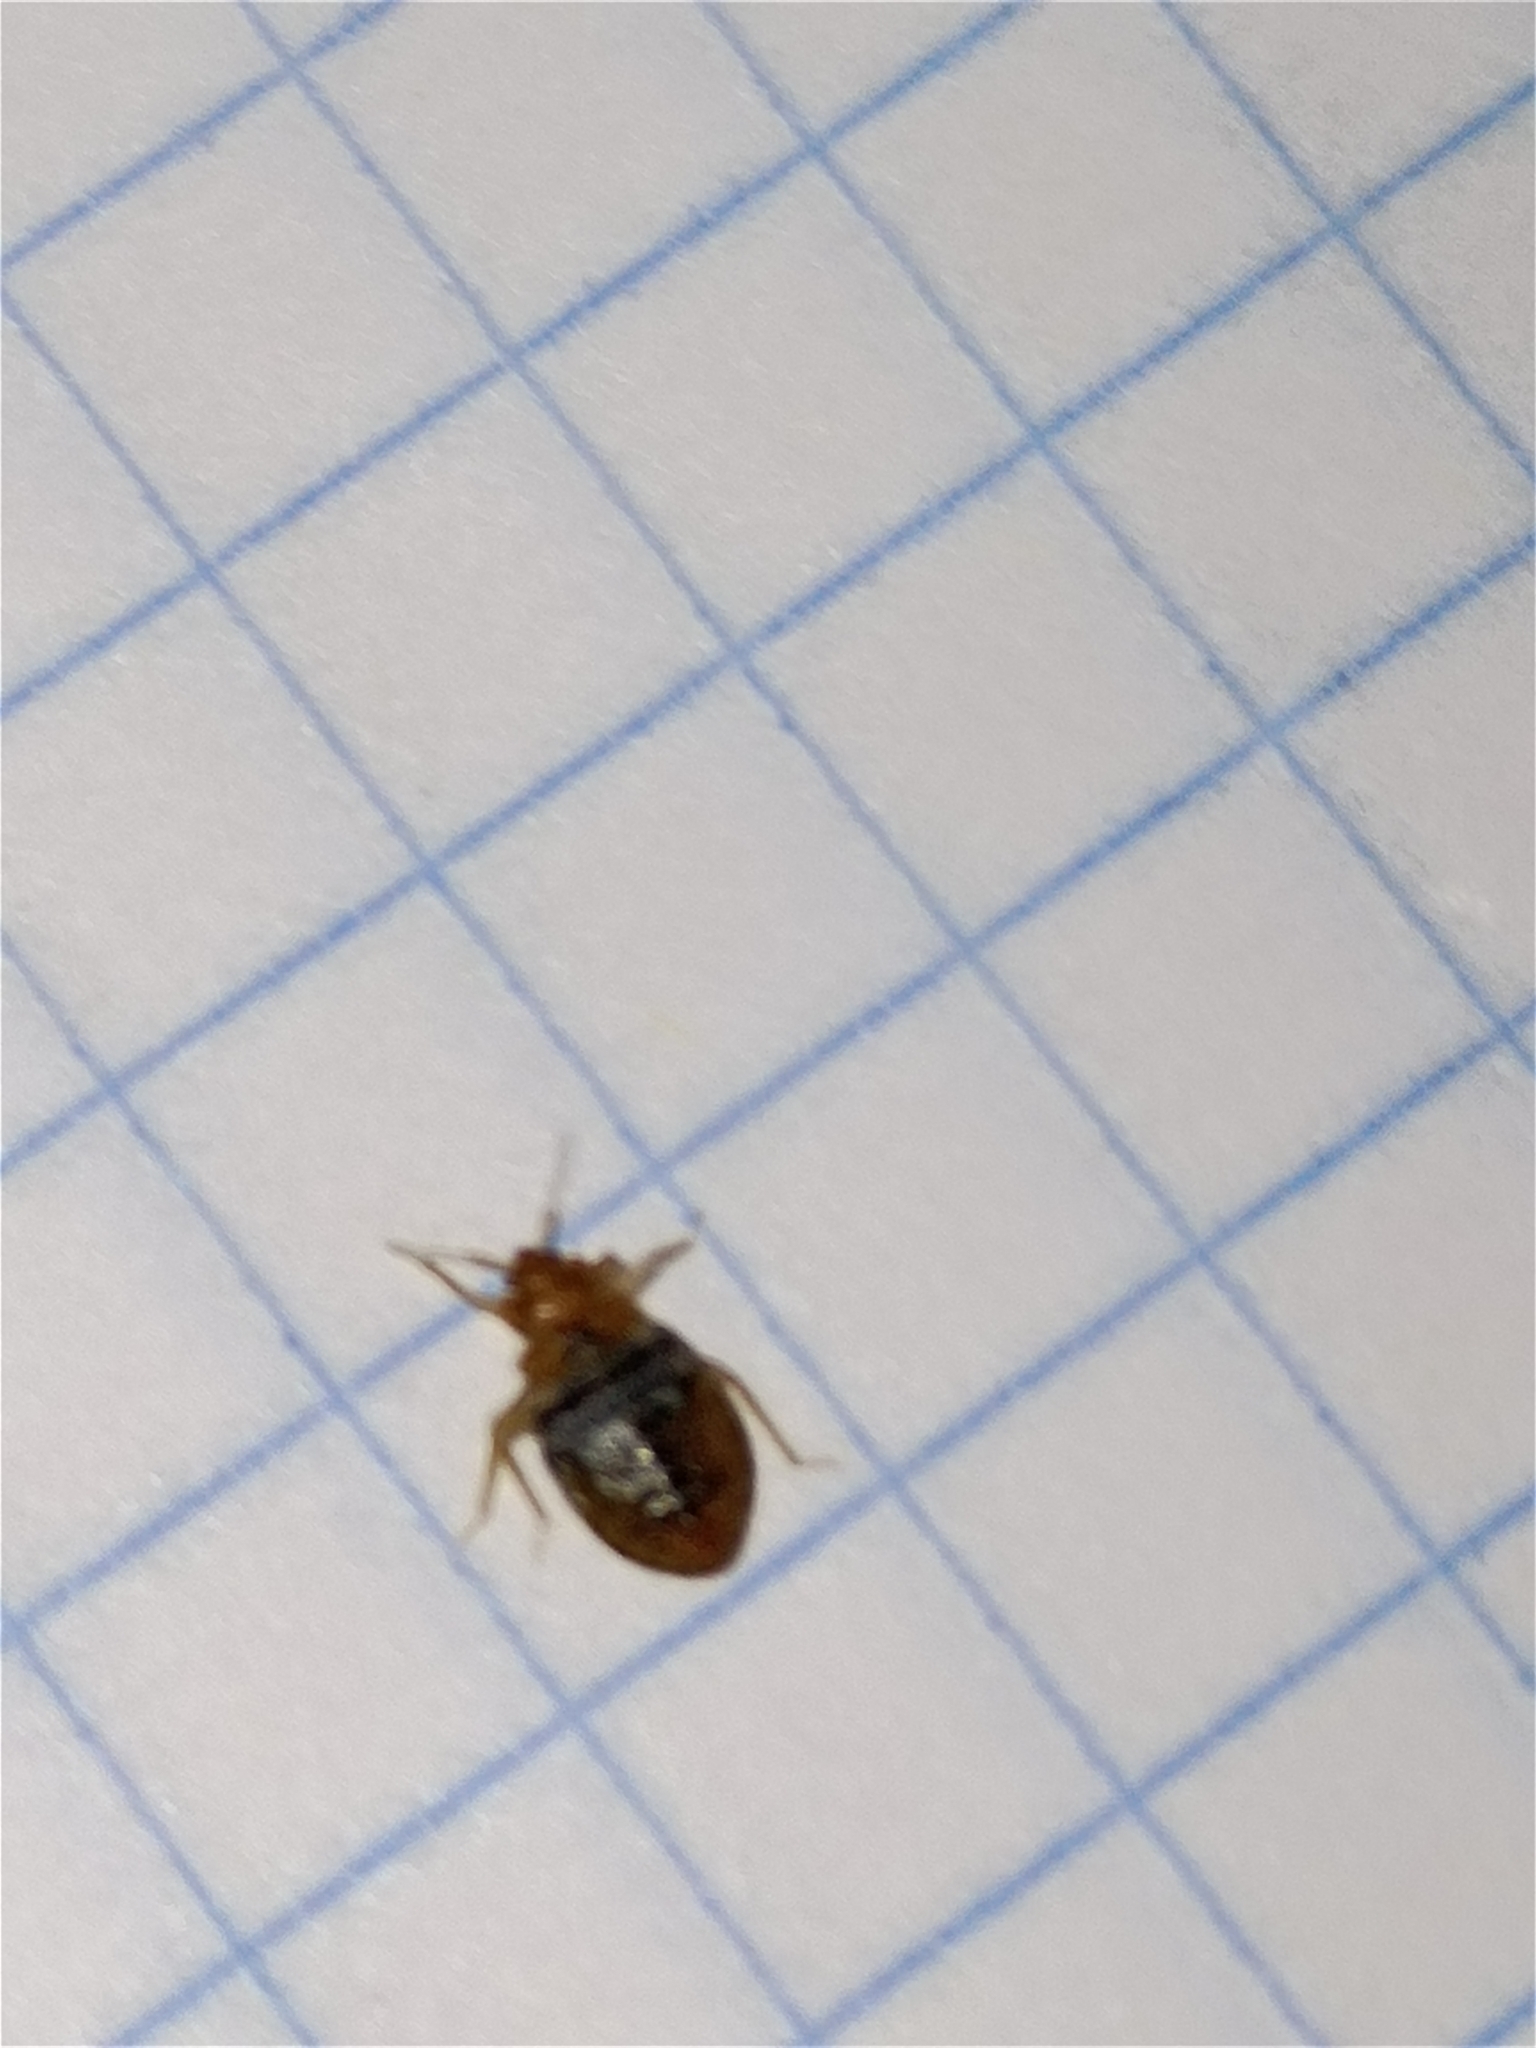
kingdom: Animalia
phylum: Arthropoda
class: Insecta
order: Hemiptera
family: Cimicidae
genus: Cimex
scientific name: Cimex lectularius
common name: Bed bug
